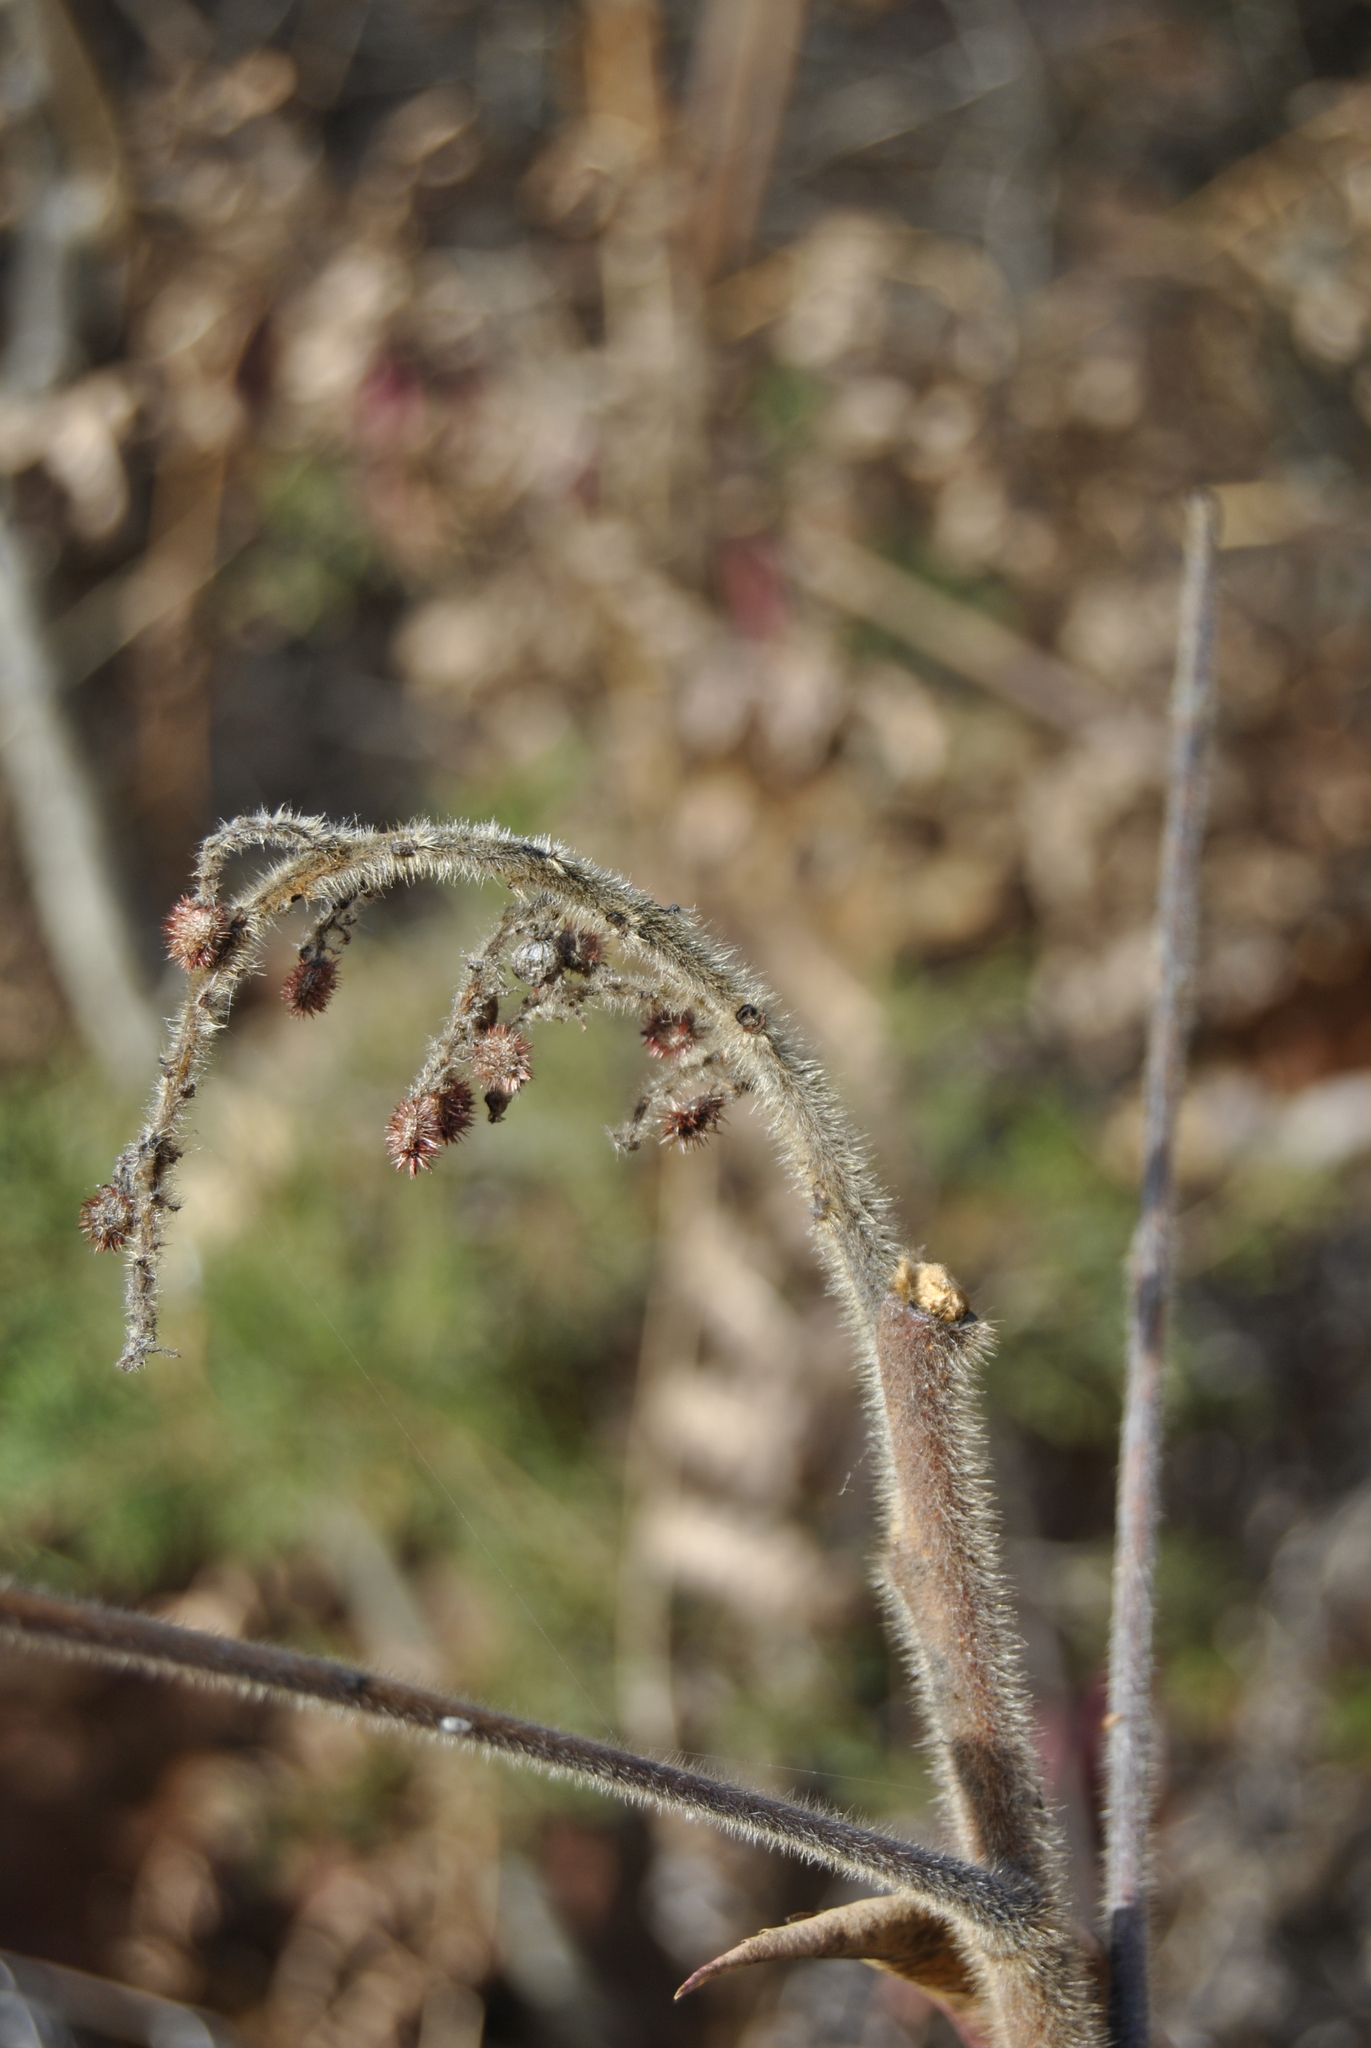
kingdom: Plantae
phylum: Tracheophyta
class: Magnoliopsida
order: Sapindales
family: Anacardiaceae
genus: Rhus
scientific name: Rhus typhina
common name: Staghorn sumac
